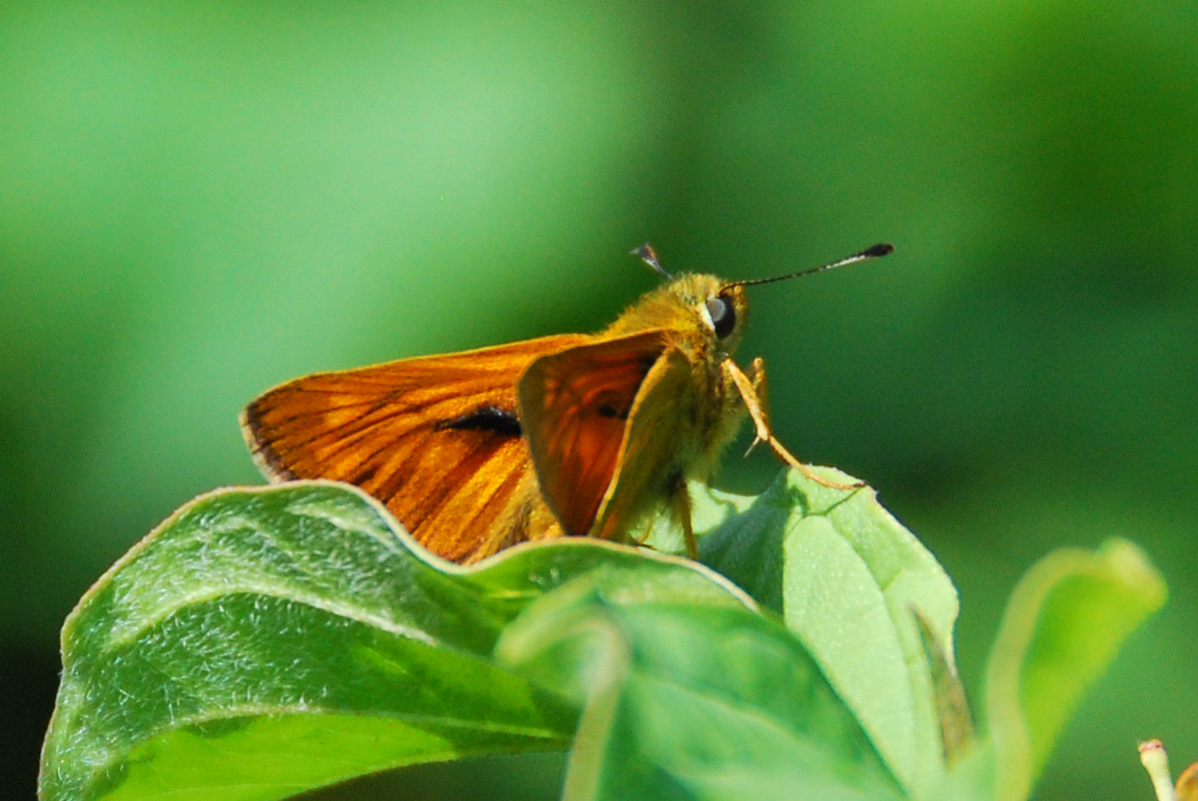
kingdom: Animalia
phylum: Arthropoda
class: Insecta
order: Lepidoptera
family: Hesperiidae
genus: Ochlodes
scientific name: Ochlodes venata
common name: Large skipper
